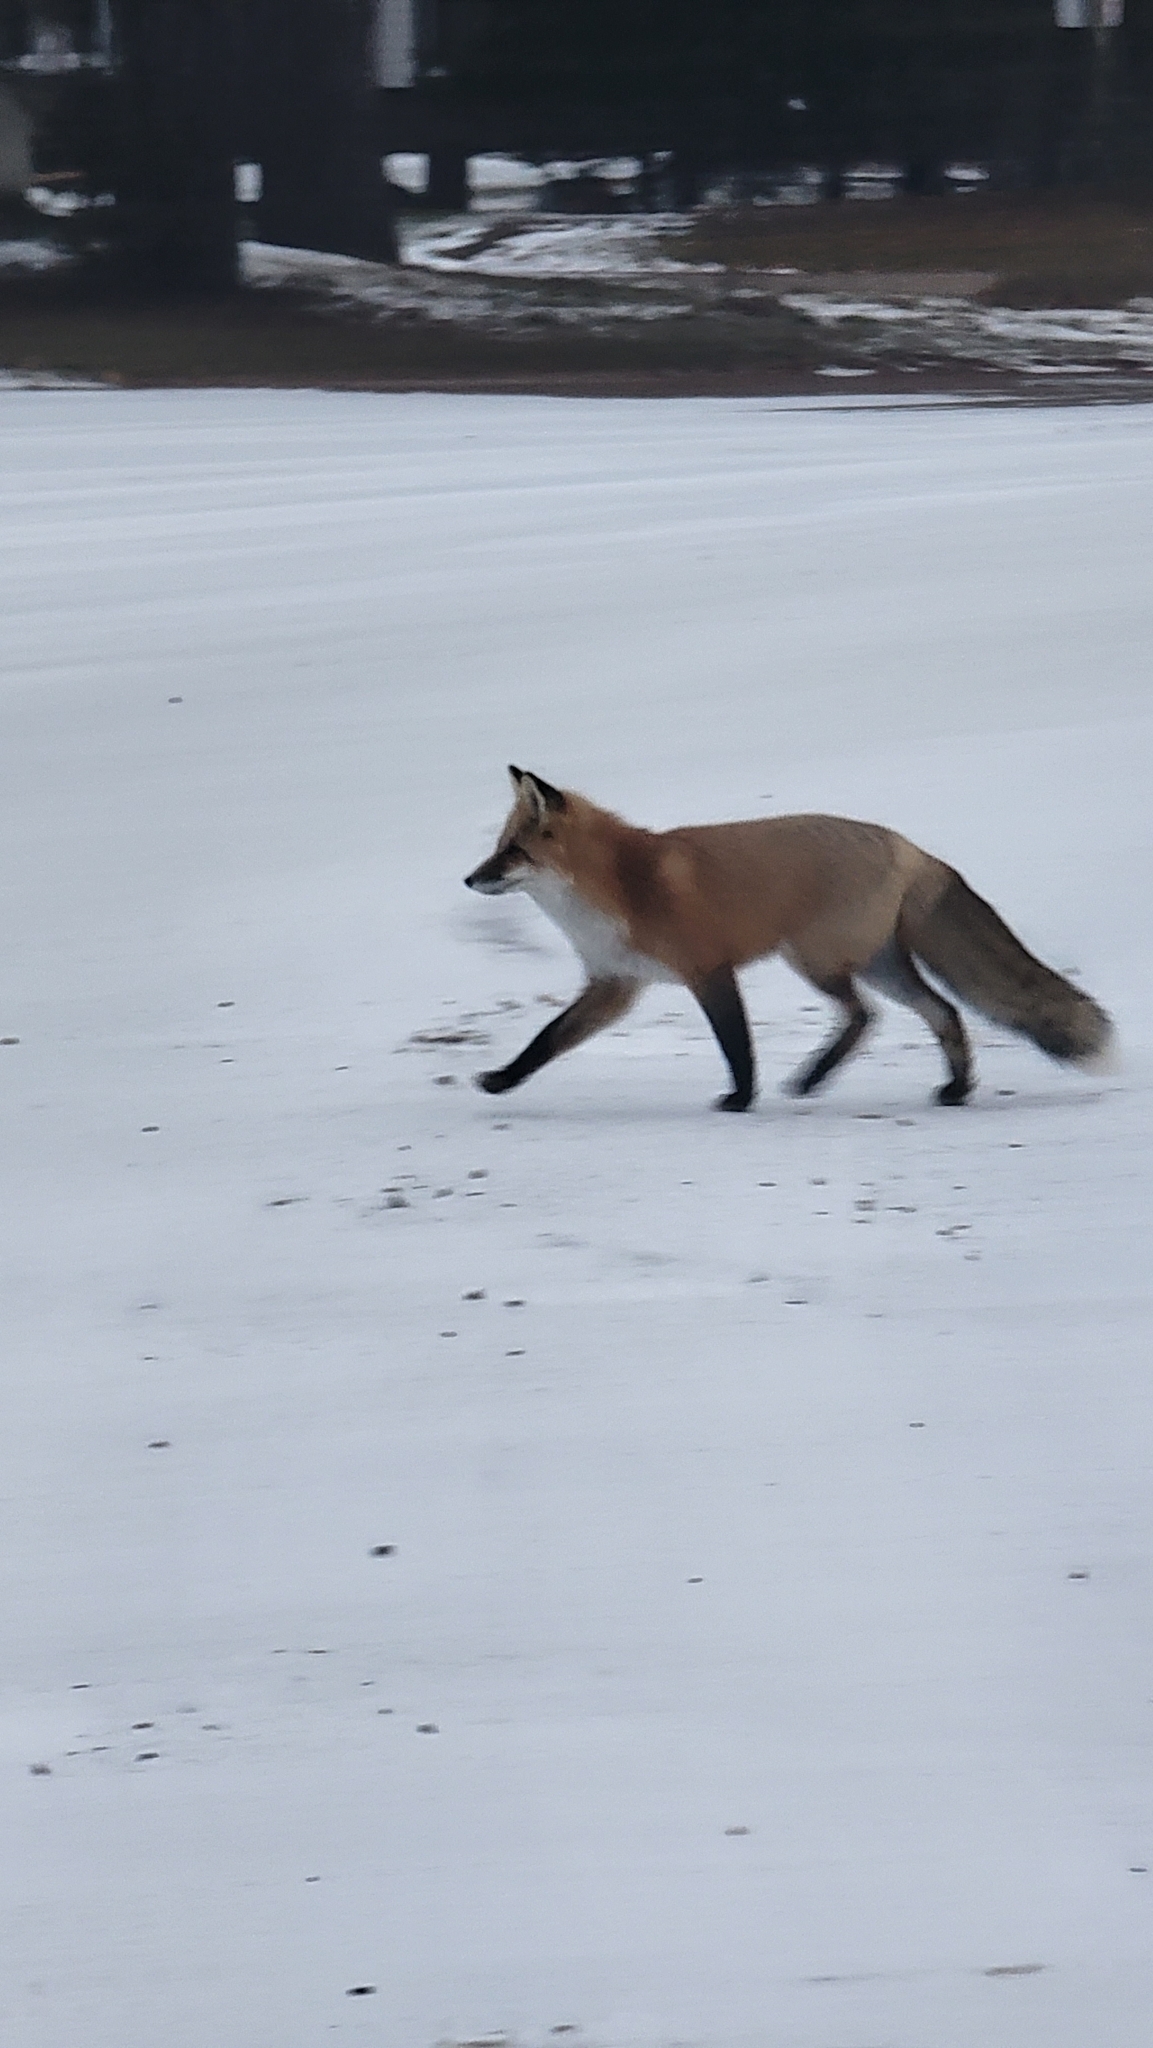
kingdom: Animalia
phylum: Chordata
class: Mammalia
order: Carnivora
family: Canidae
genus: Vulpes
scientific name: Vulpes vulpes
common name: Red fox
